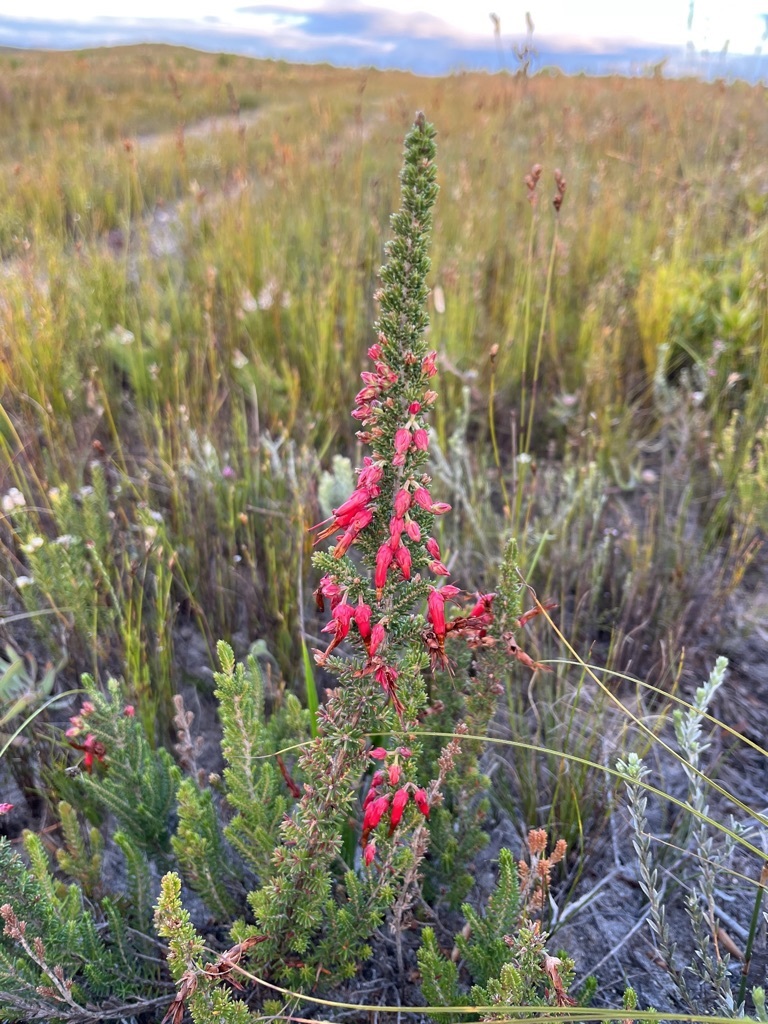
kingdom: Plantae
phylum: Tracheophyta
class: Magnoliopsida
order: Ericales
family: Ericaceae
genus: Erica
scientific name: Erica monadelphia
